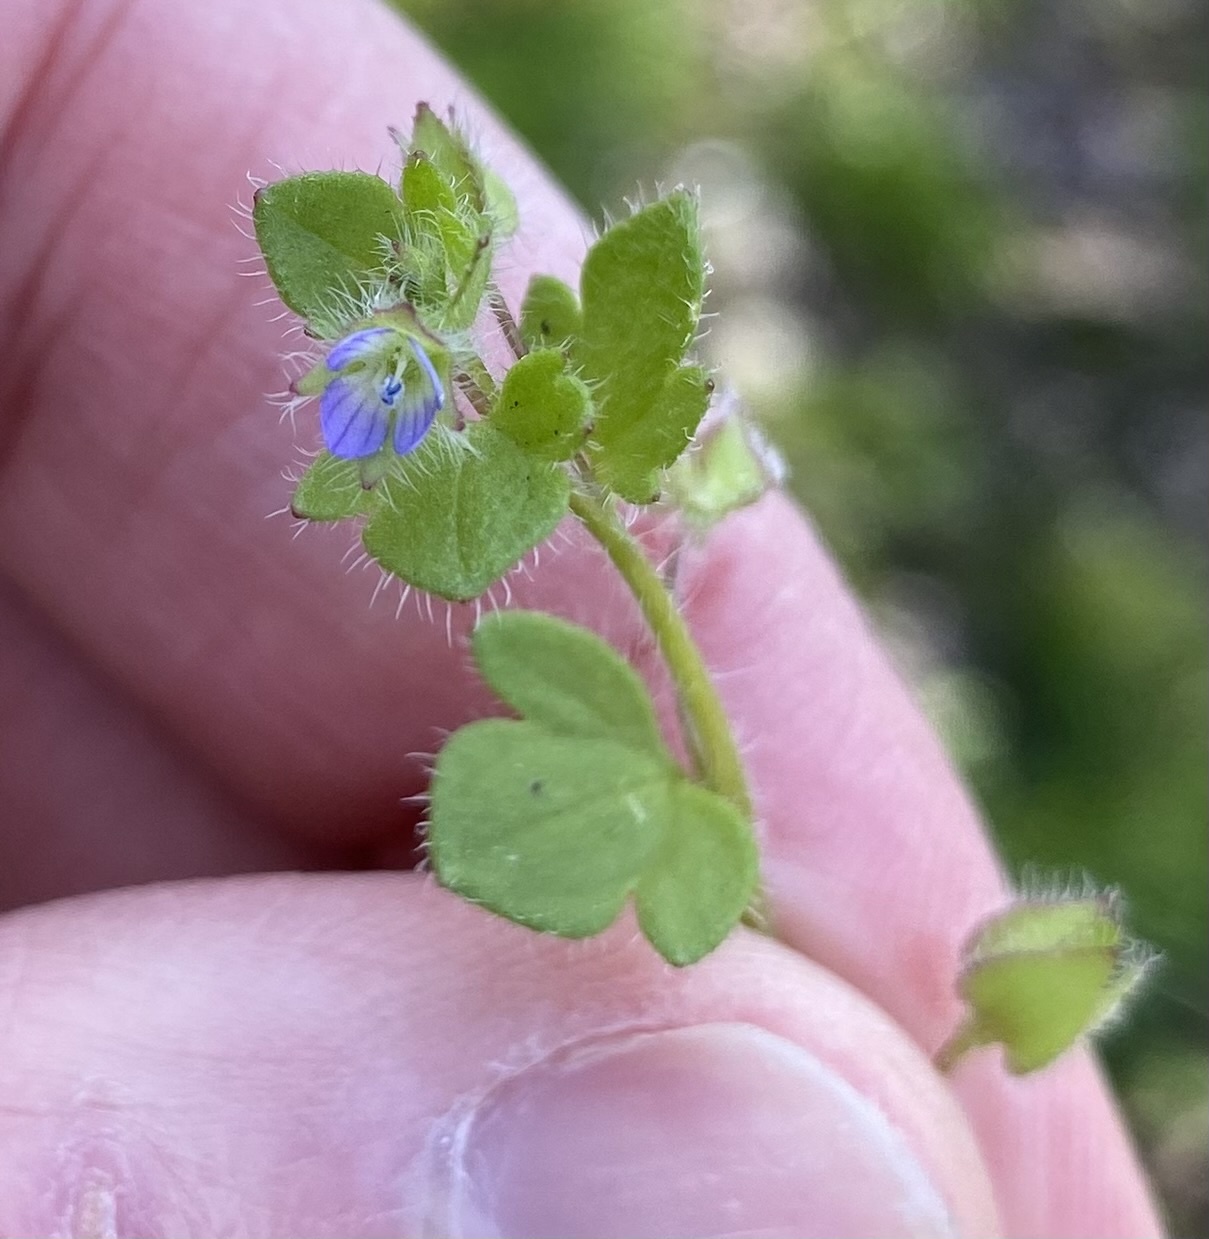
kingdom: Plantae
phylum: Tracheophyta
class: Magnoliopsida
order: Lamiales
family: Plantaginaceae
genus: Veronica
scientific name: Veronica hederifolia
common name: Ivy-leaved speedwell
